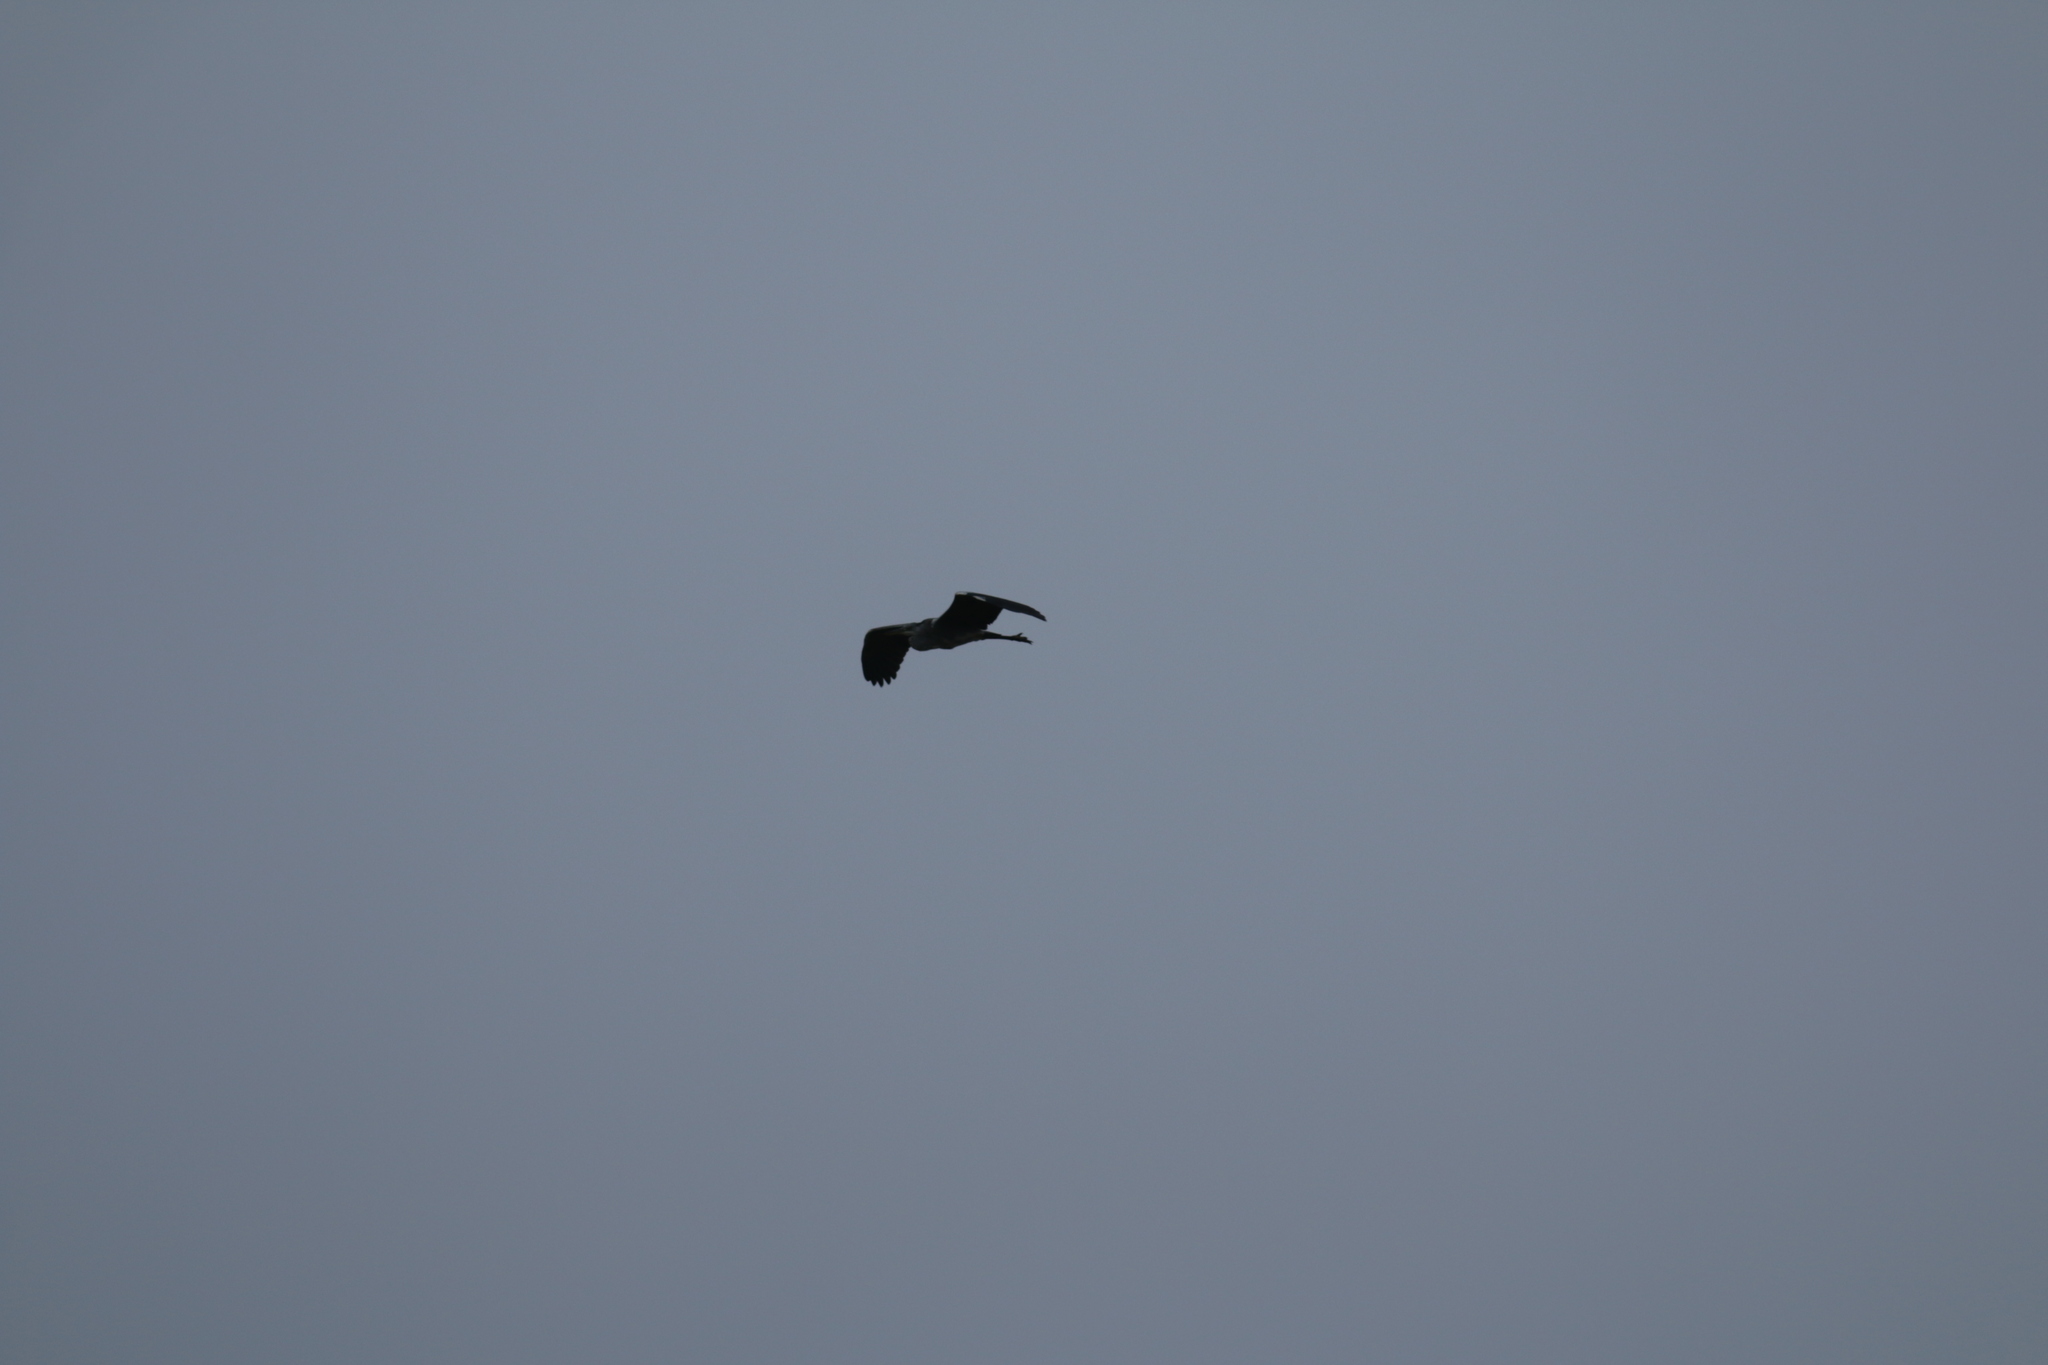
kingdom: Animalia
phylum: Chordata
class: Aves
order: Pelecaniformes
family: Ardeidae
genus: Ardea
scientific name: Ardea cinerea
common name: Grey heron
